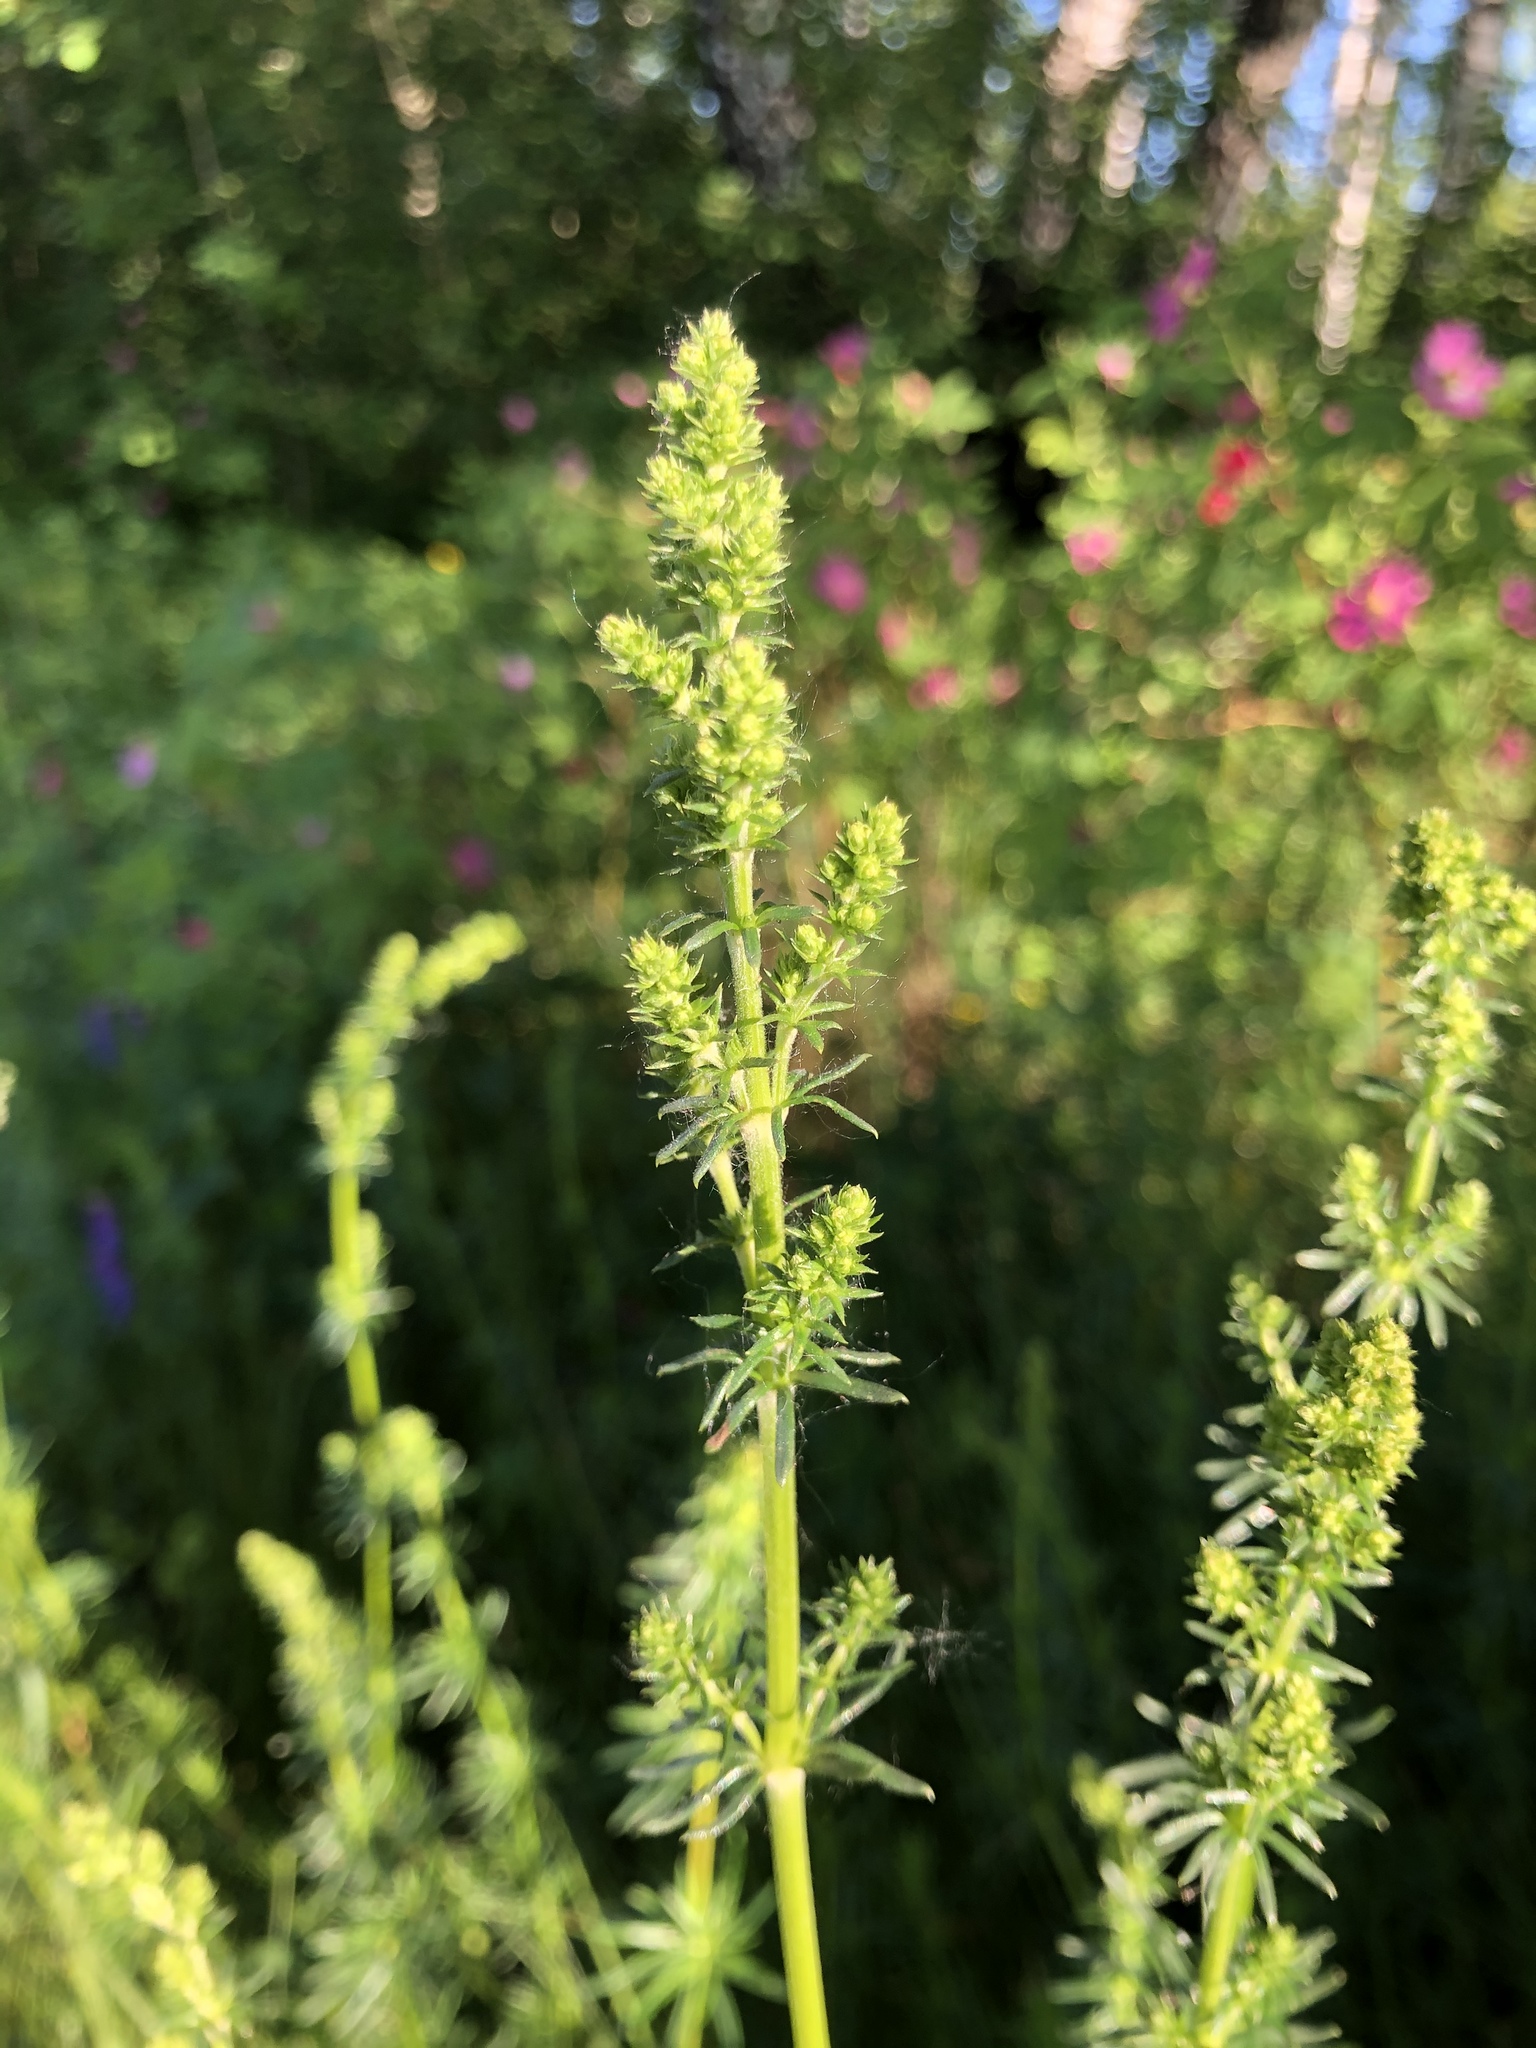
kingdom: Plantae
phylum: Tracheophyta
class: Magnoliopsida
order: Gentianales
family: Rubiaceae
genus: Galium
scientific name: Galium verum
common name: Lady's bedstraw
